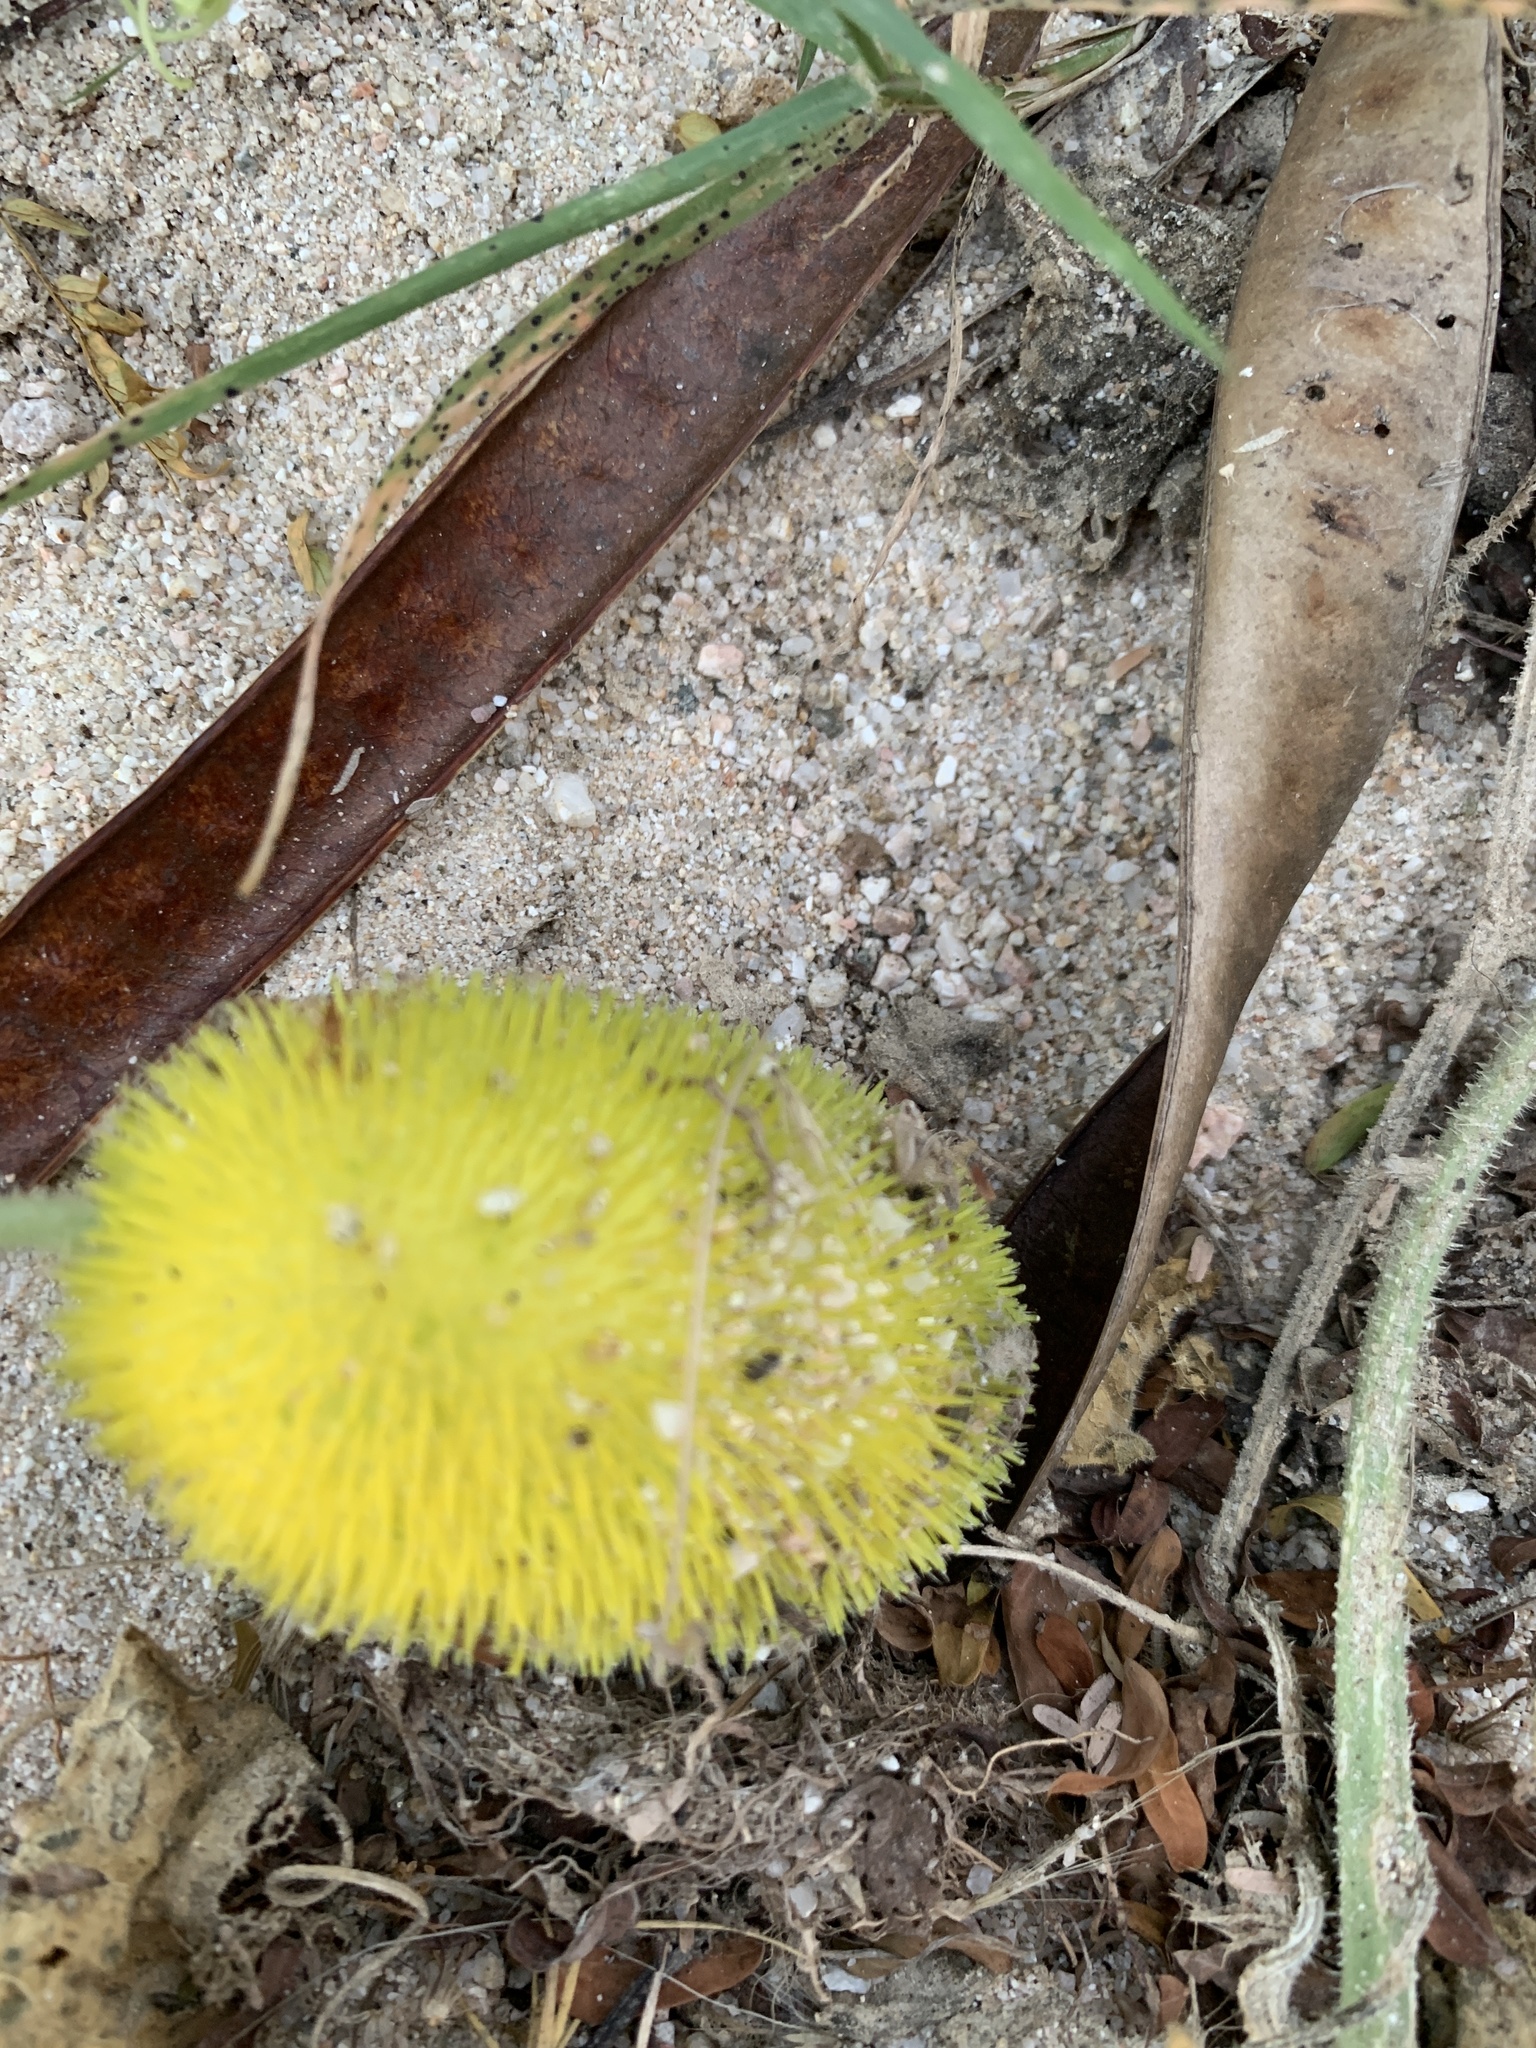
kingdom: Plantae
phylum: Tracheophyta
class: Magnoliopsida
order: Cucurbitales
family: Cucurbitaceae
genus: Cucumis
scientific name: Cucumis dipsaceus
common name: Hedgehog gourd
